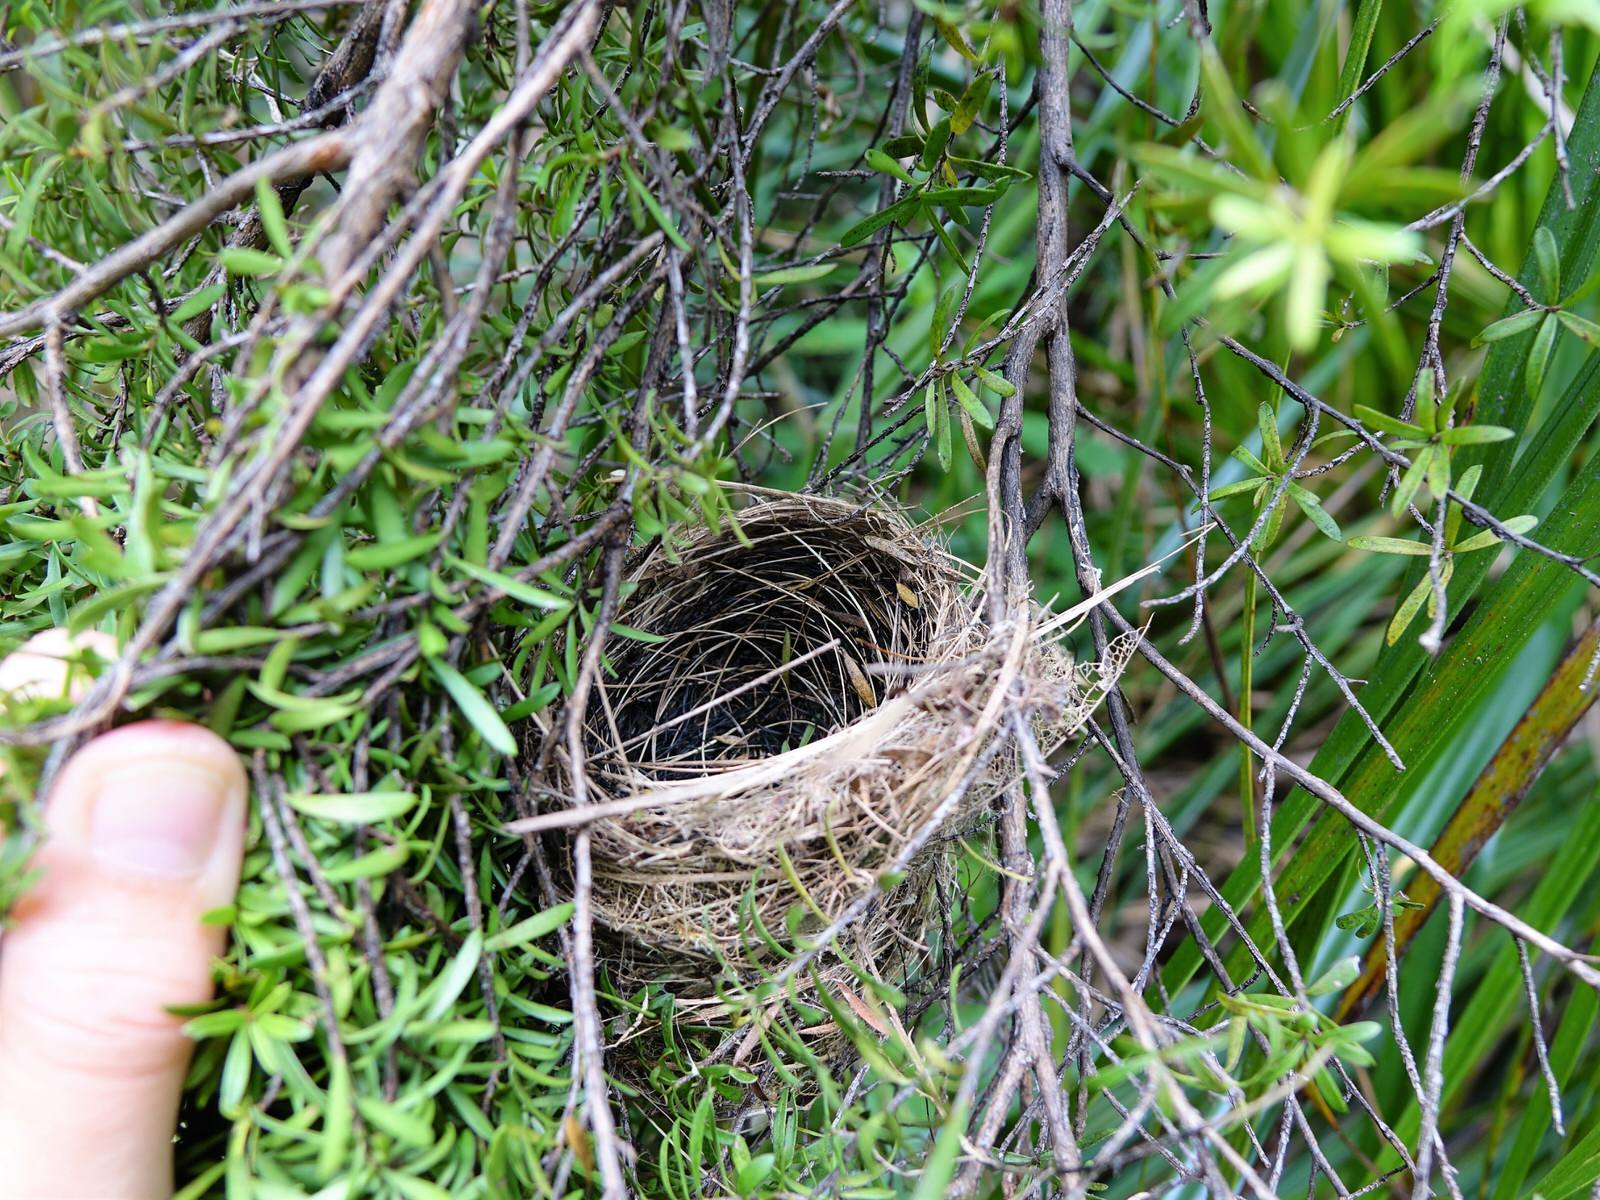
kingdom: Animalia
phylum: Chordata
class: Aves
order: Passeriformes
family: Zosteropidae
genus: Zosterops
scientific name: Zosterops lateralis
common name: Silvereye
